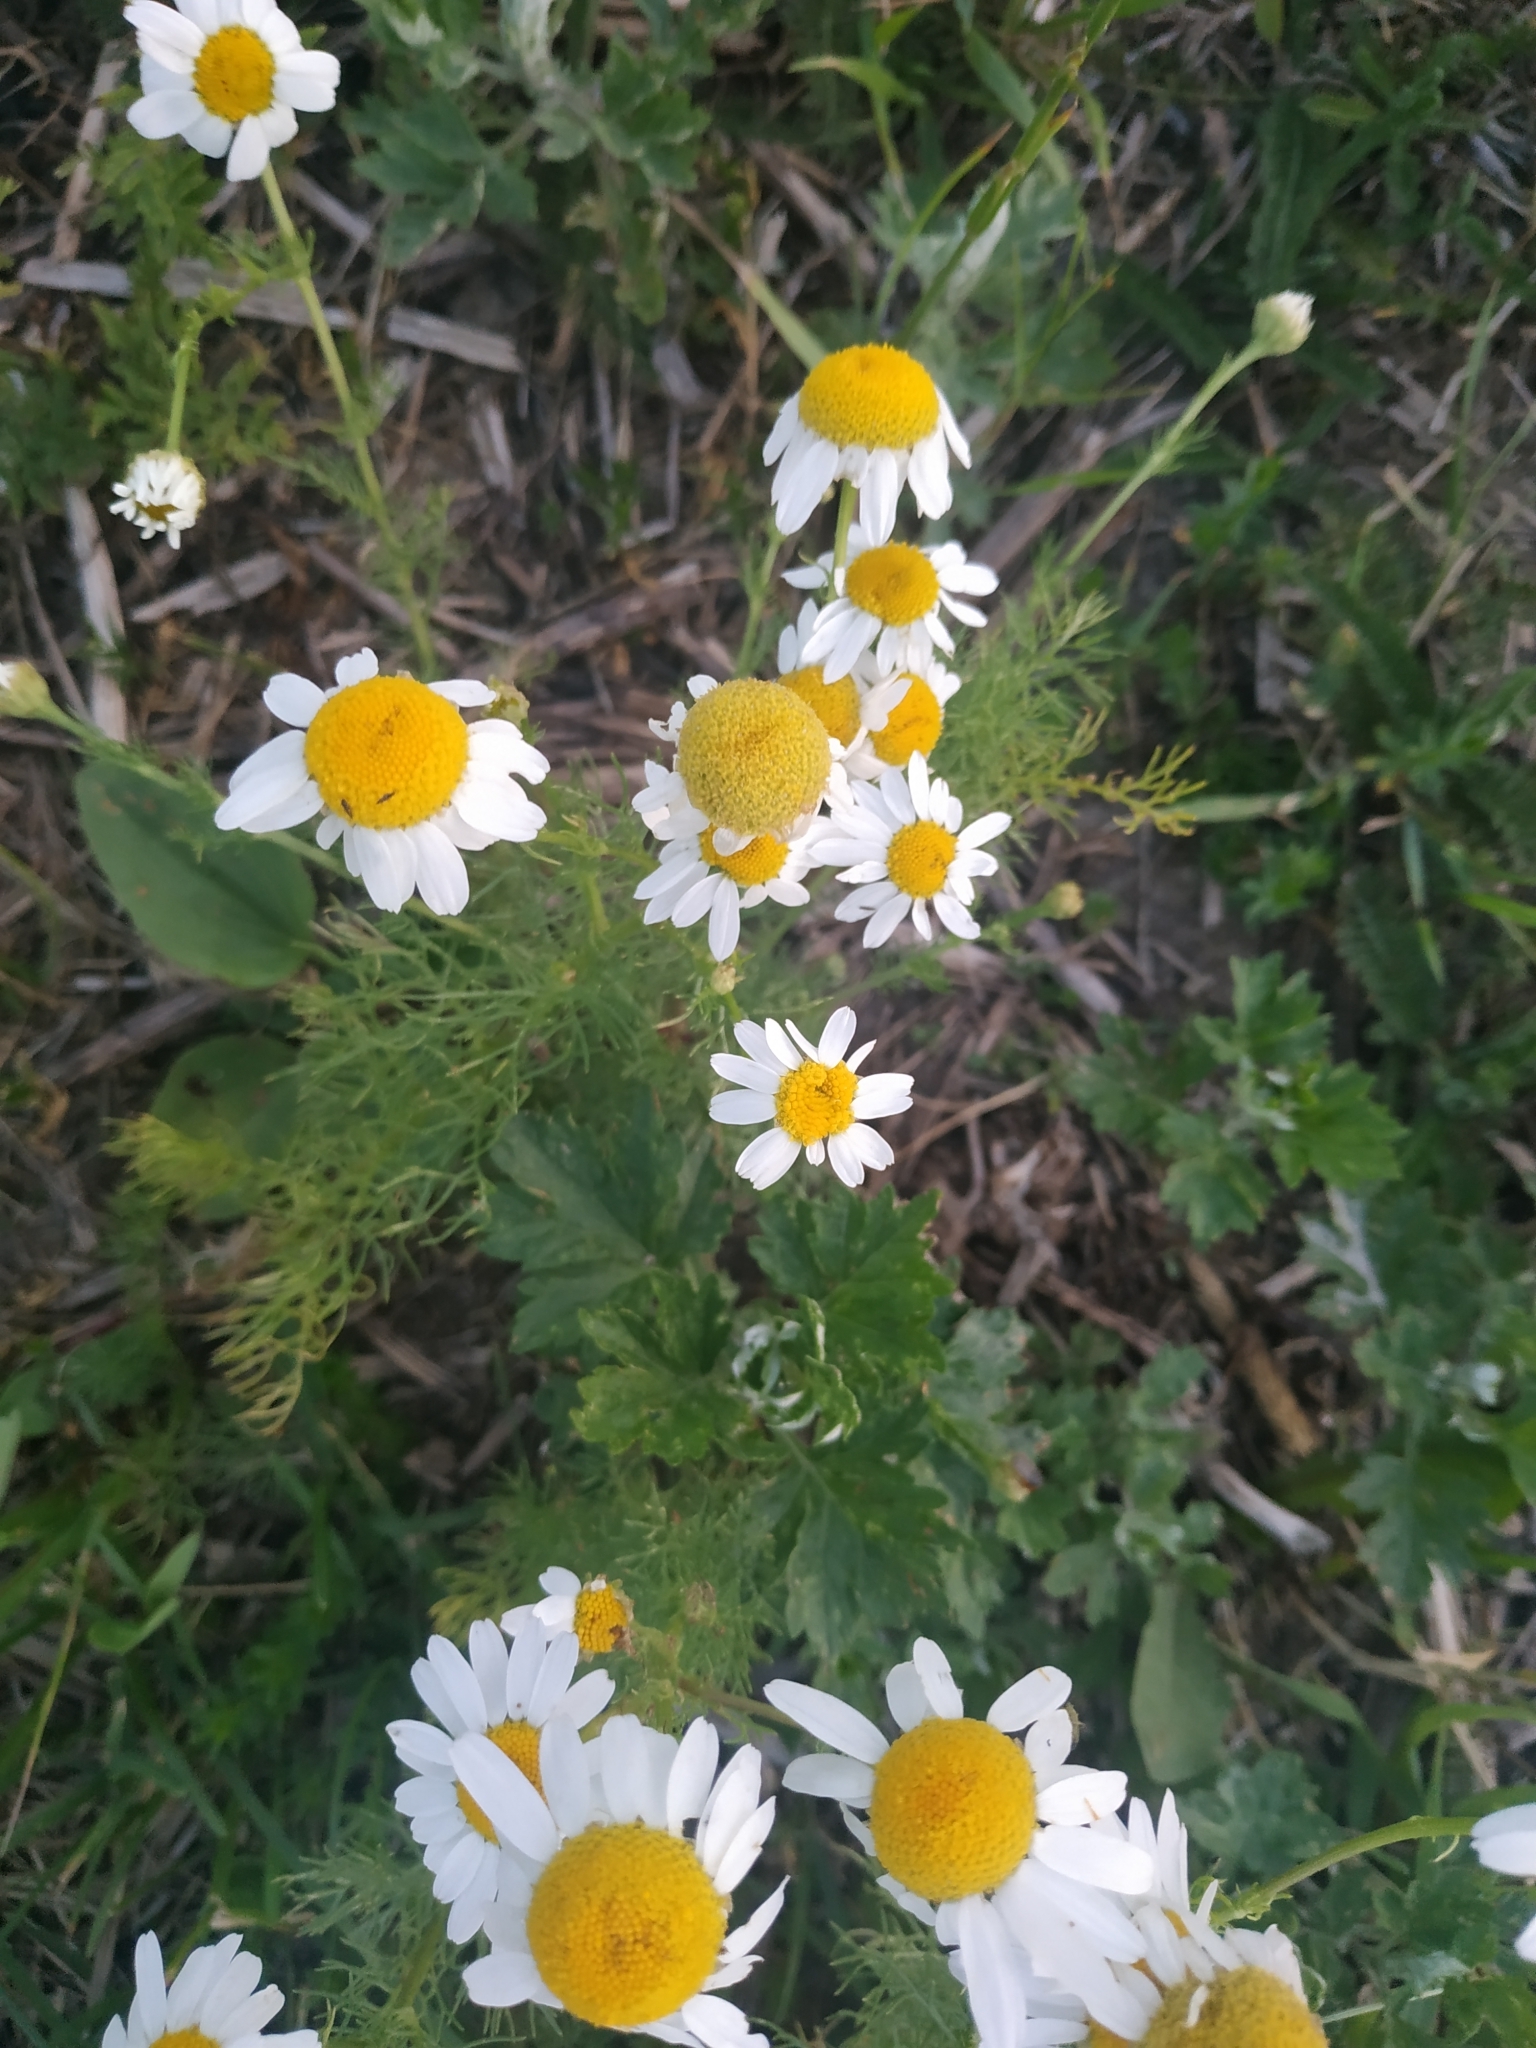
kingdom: Plantae
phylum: Tracheophyta
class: Magnoliopsida
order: Asterales
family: Asteraceae
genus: Tripleurospermum
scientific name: Tripleurospermum inodorum
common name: Scentless mayweed
